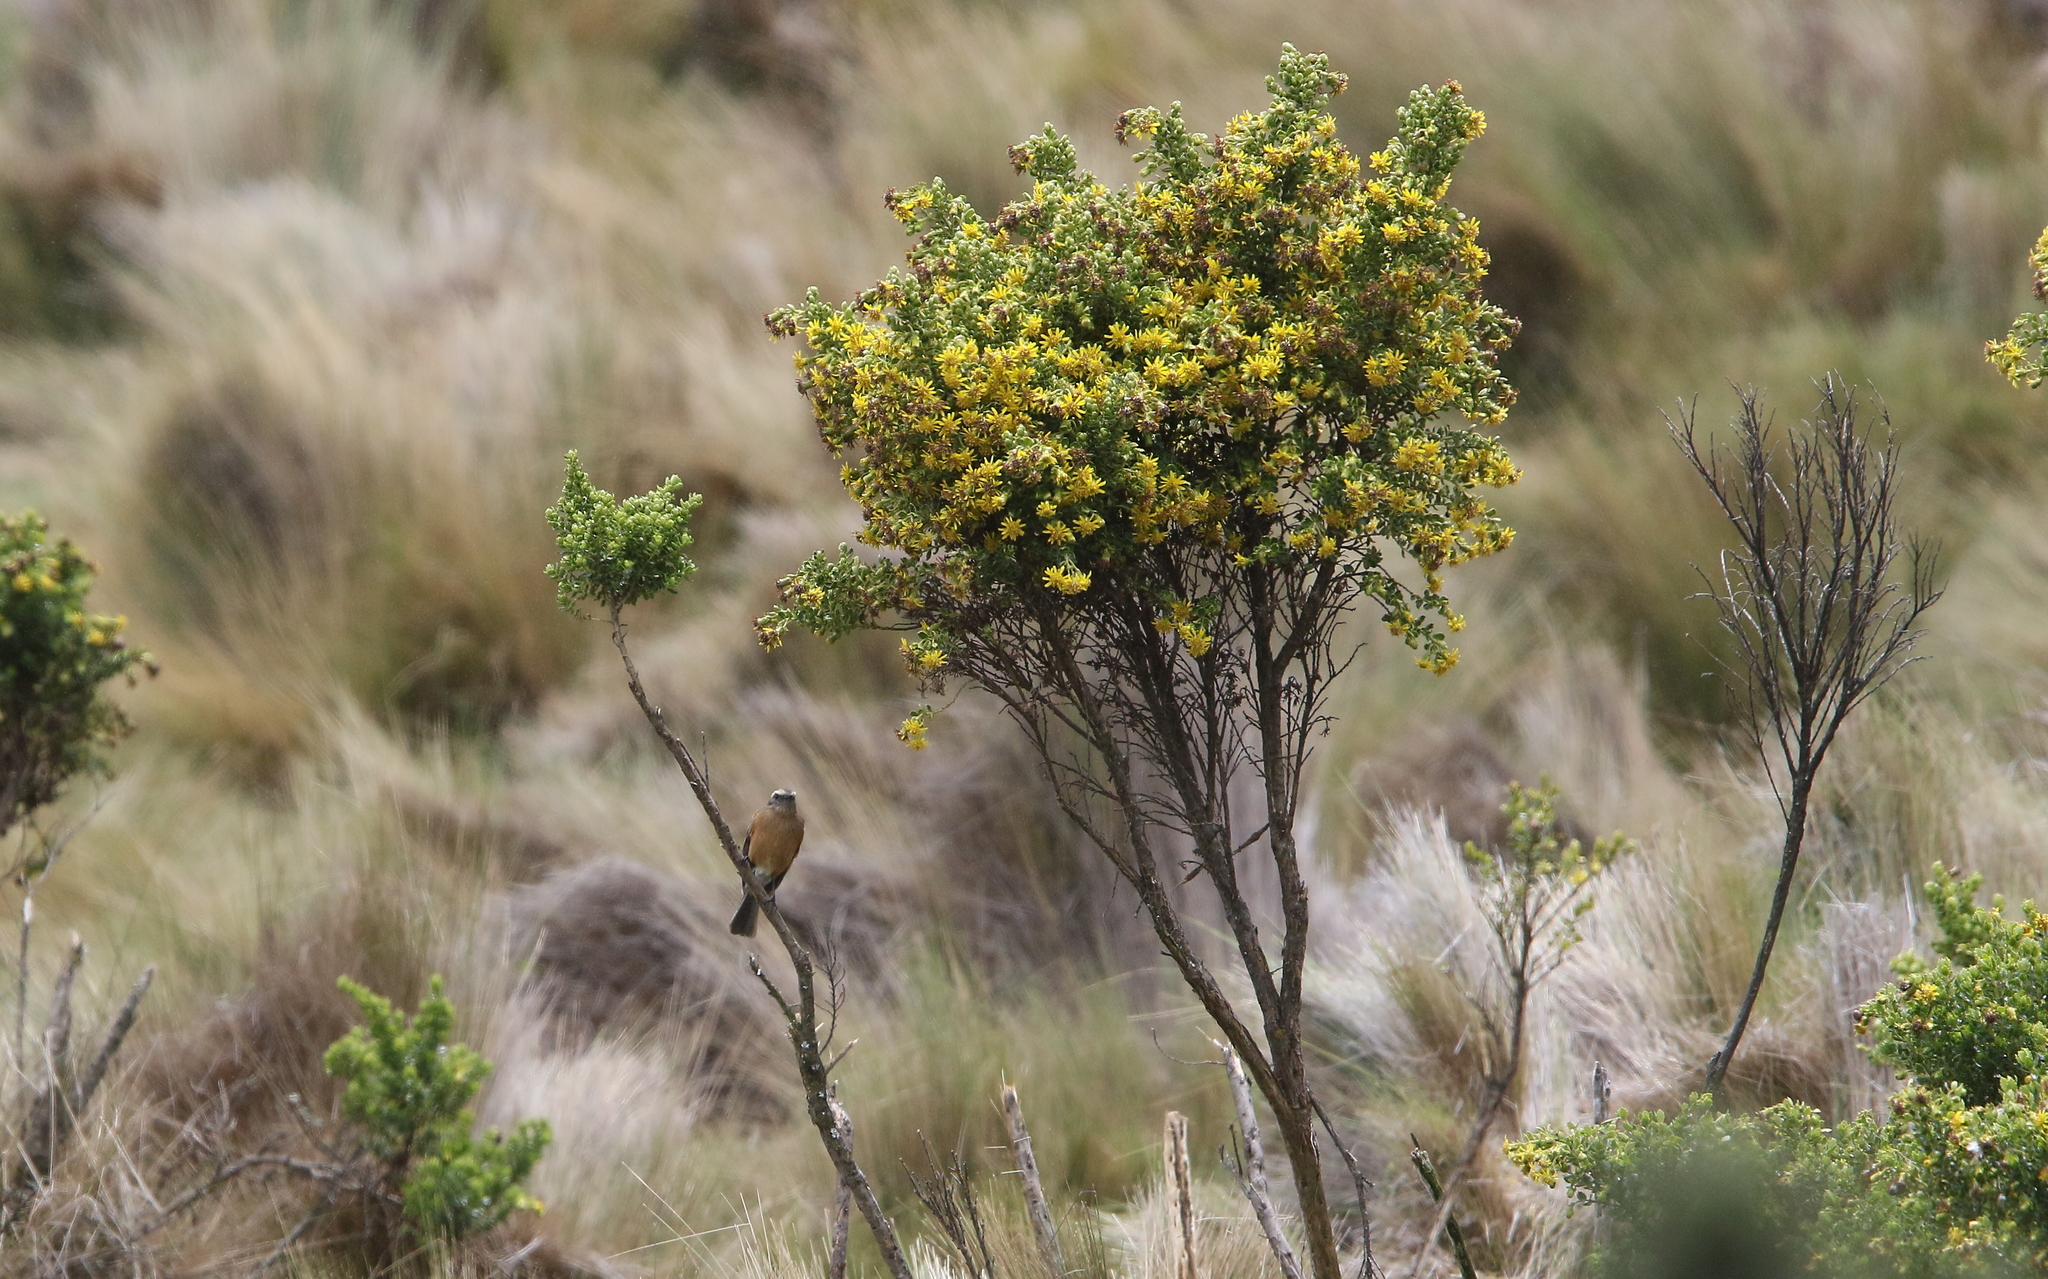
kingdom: Animalia
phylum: Chordata
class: Aves
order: Passeriformes
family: Tyrannidae
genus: Ochthoeca
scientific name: Ochthoeca fumicolor
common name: Brown-backed chat-tyrant
